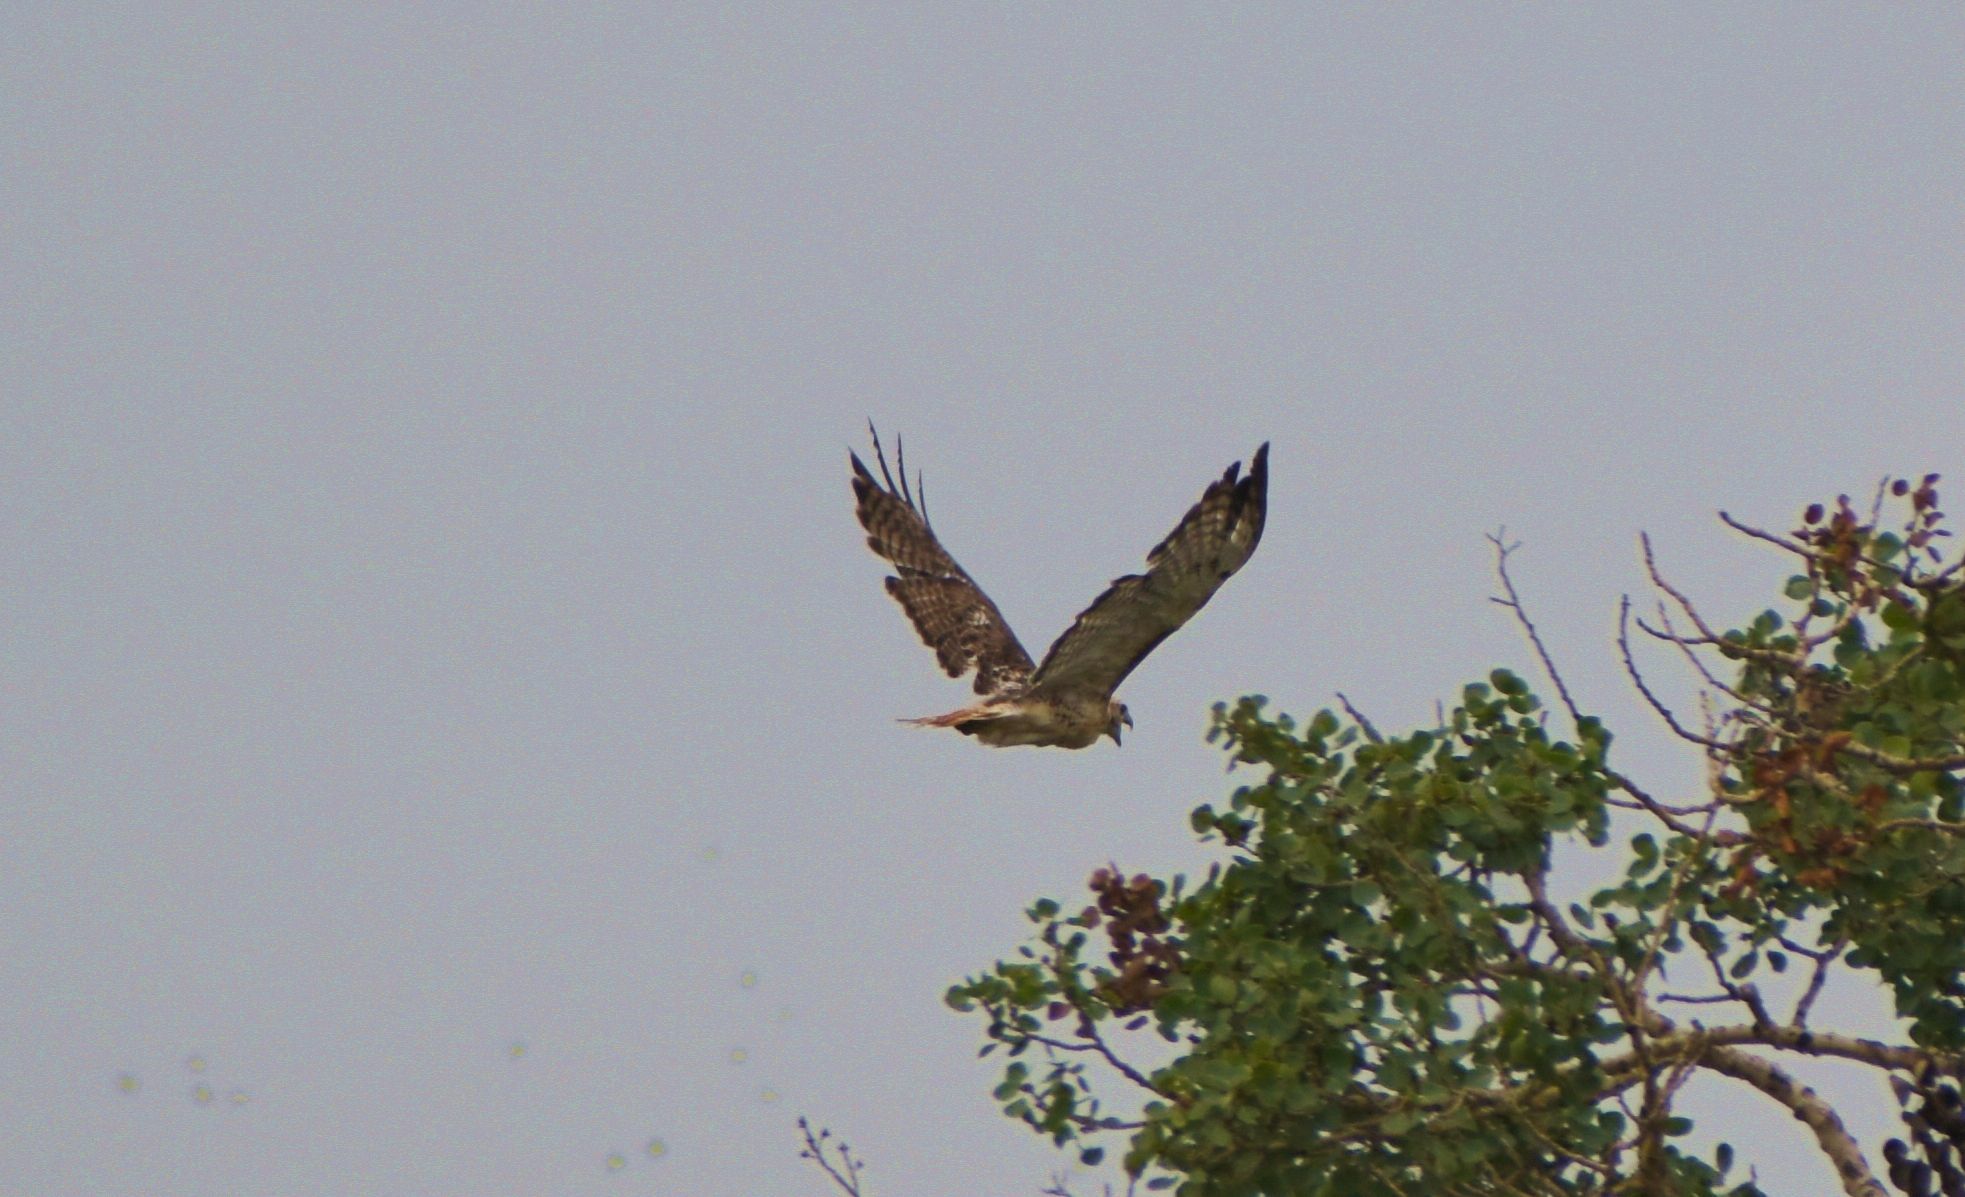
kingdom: Animalia
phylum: Chordata
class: Aves
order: Accipitriformes
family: Accipitridae
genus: Buteo
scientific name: Buteo jamaicensis
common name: Red-tailed hawk
